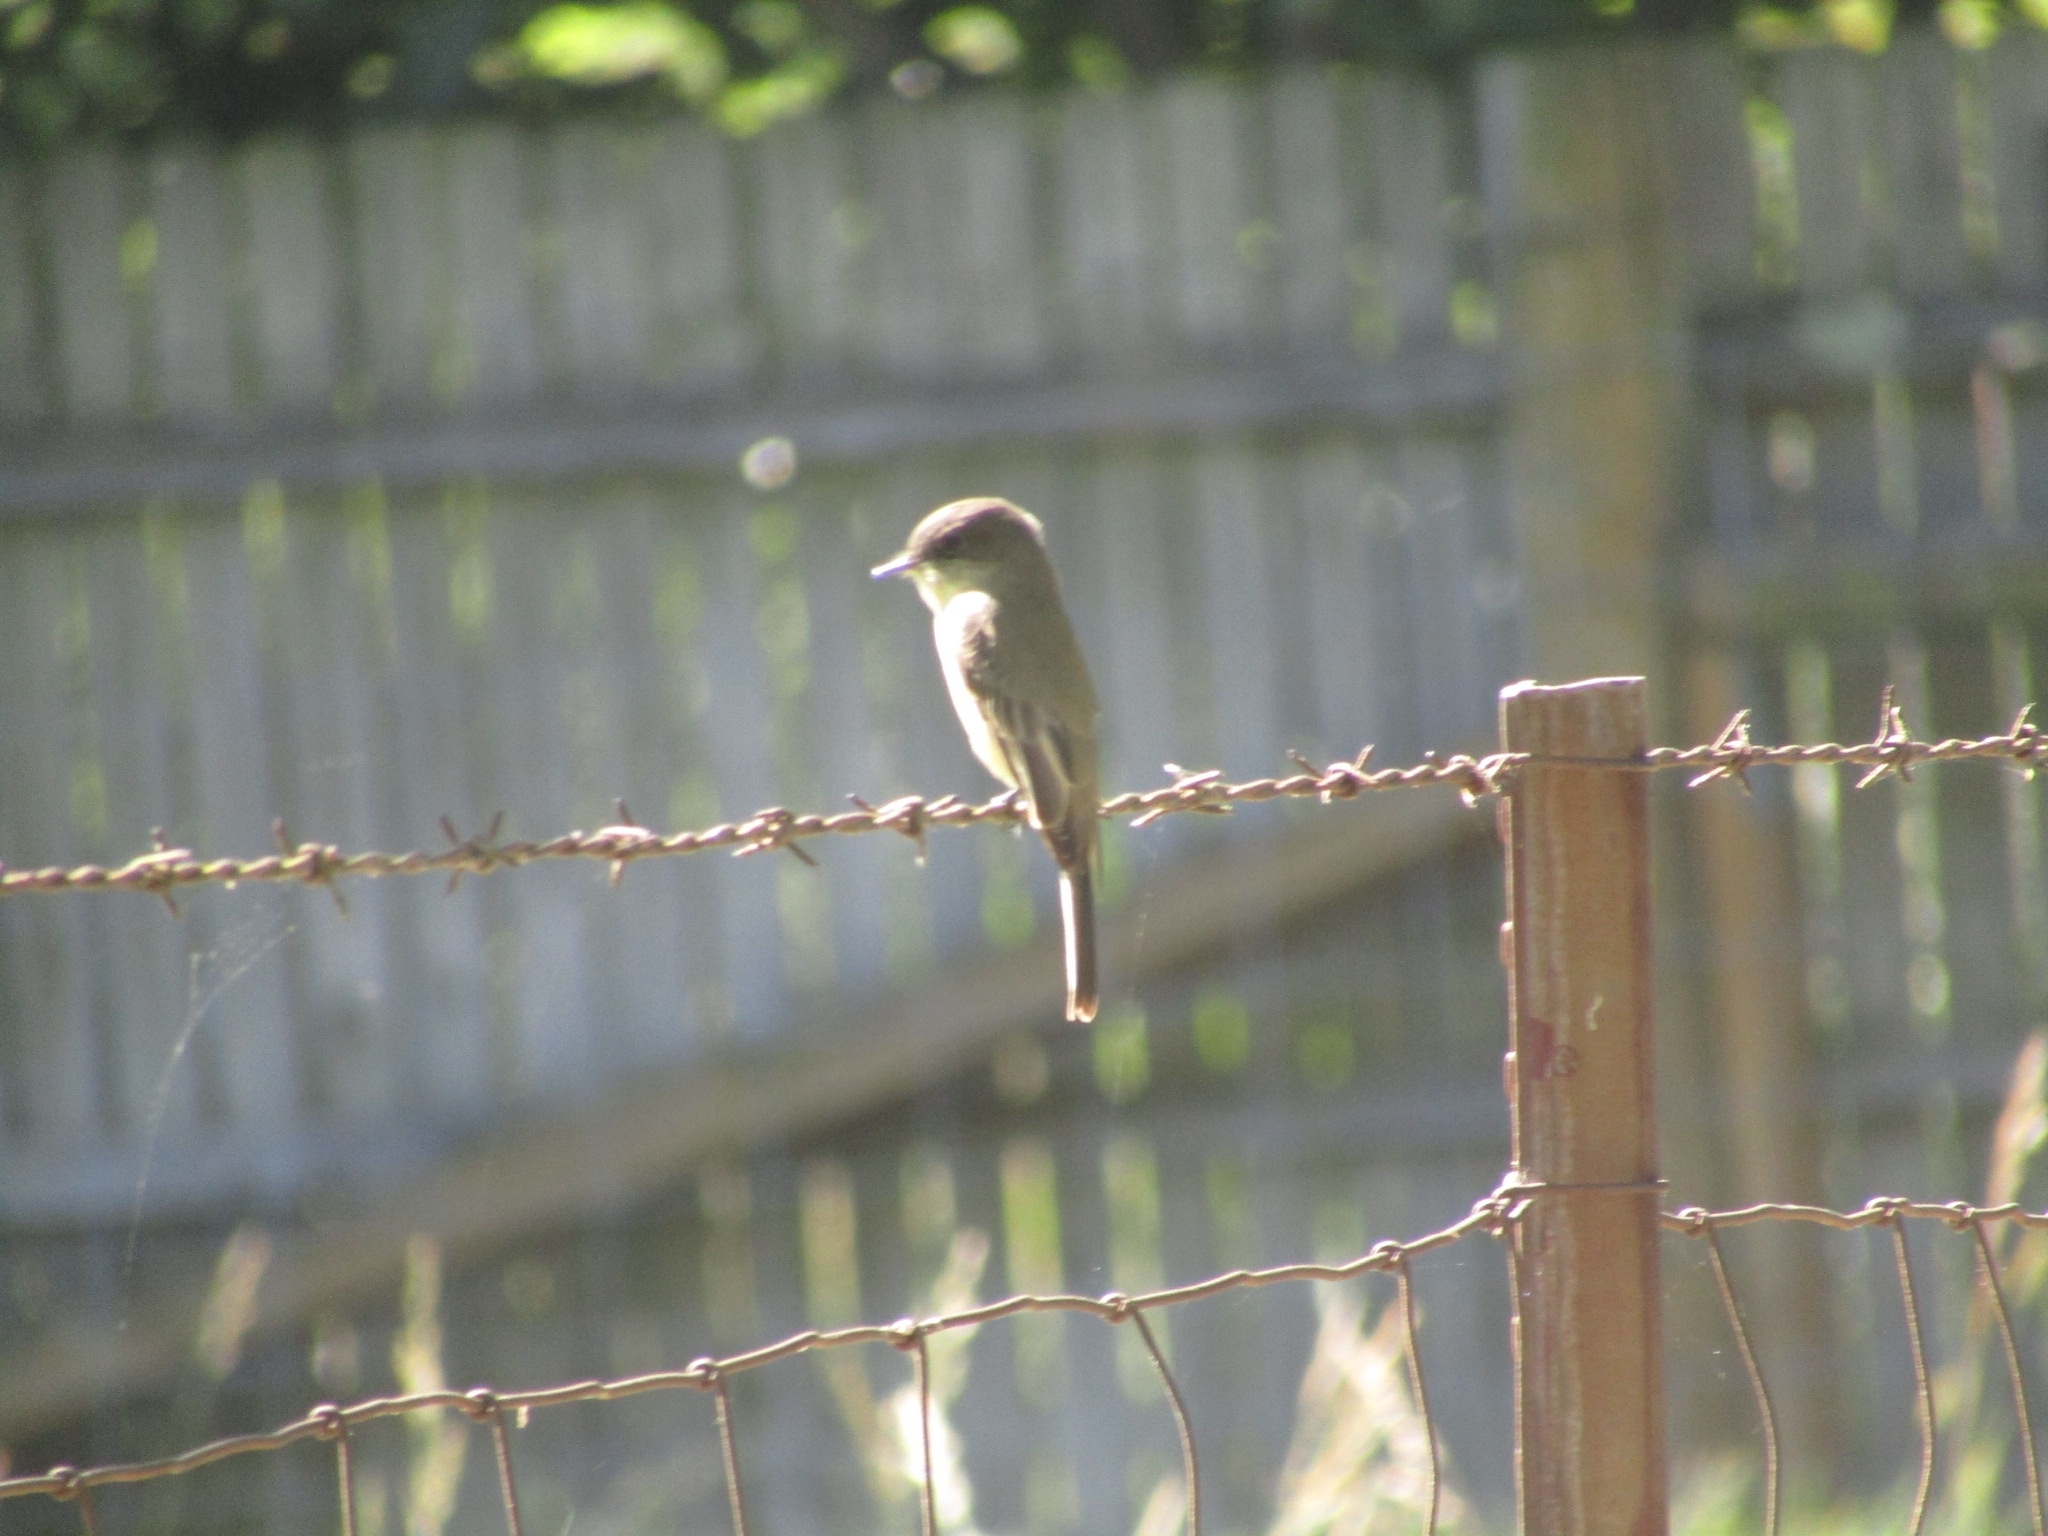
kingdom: Animalia
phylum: Chordata
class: Aves
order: Passeriformes
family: Tyrannidae
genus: Sayornis
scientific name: Sayornis phoebe
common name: Eastern phoebe
